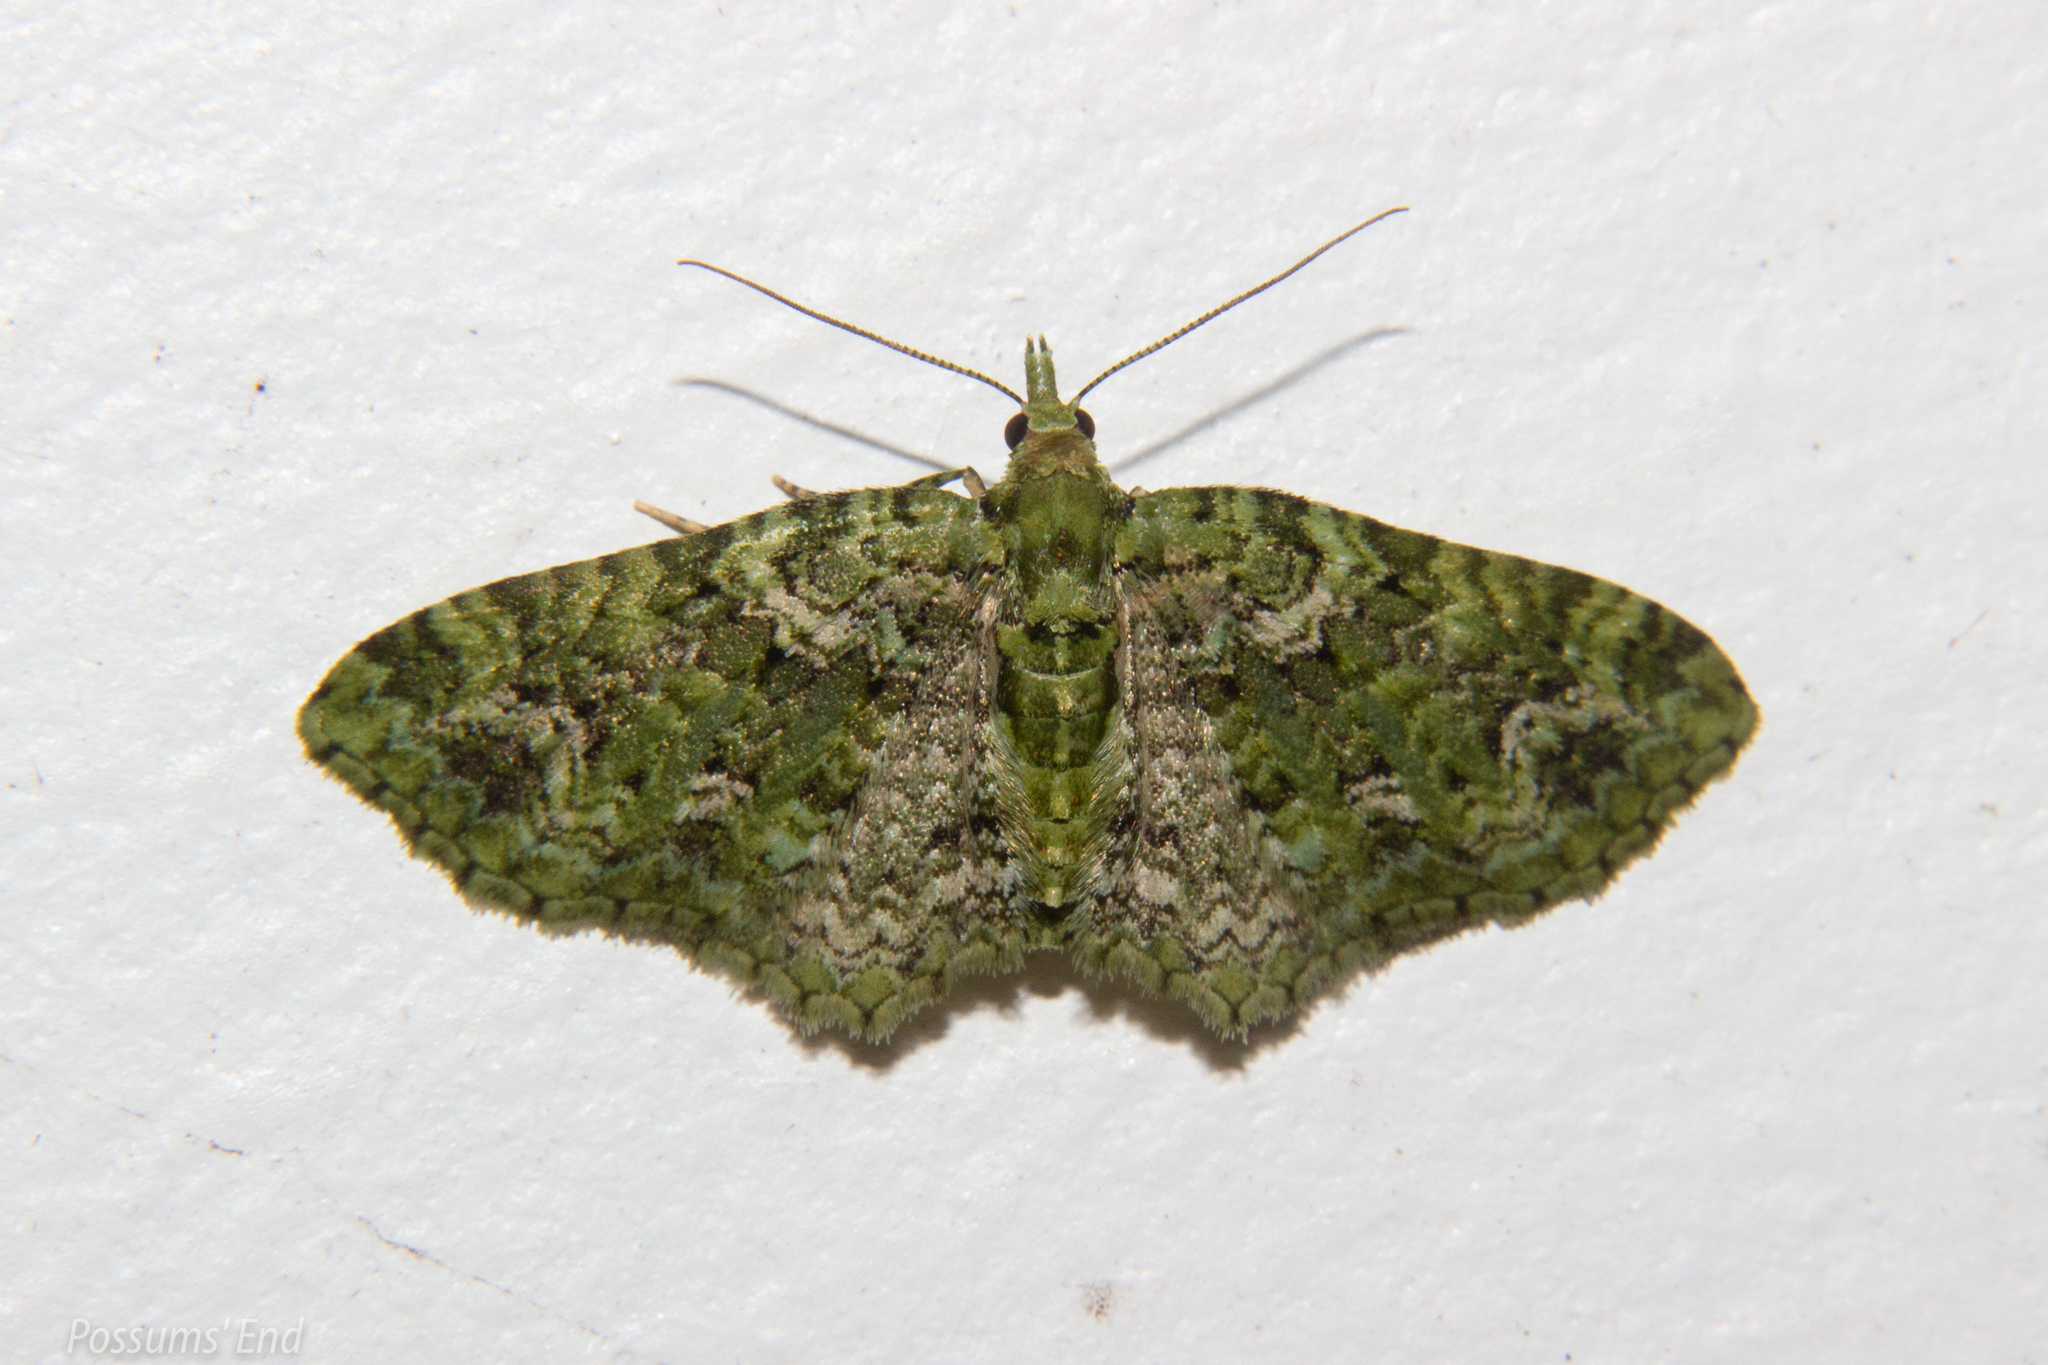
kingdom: Animalia
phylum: Arthropoda
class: Insecta
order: Lepidoptera
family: Geometridae
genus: Pasiphila
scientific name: Pasiphila muscosata
